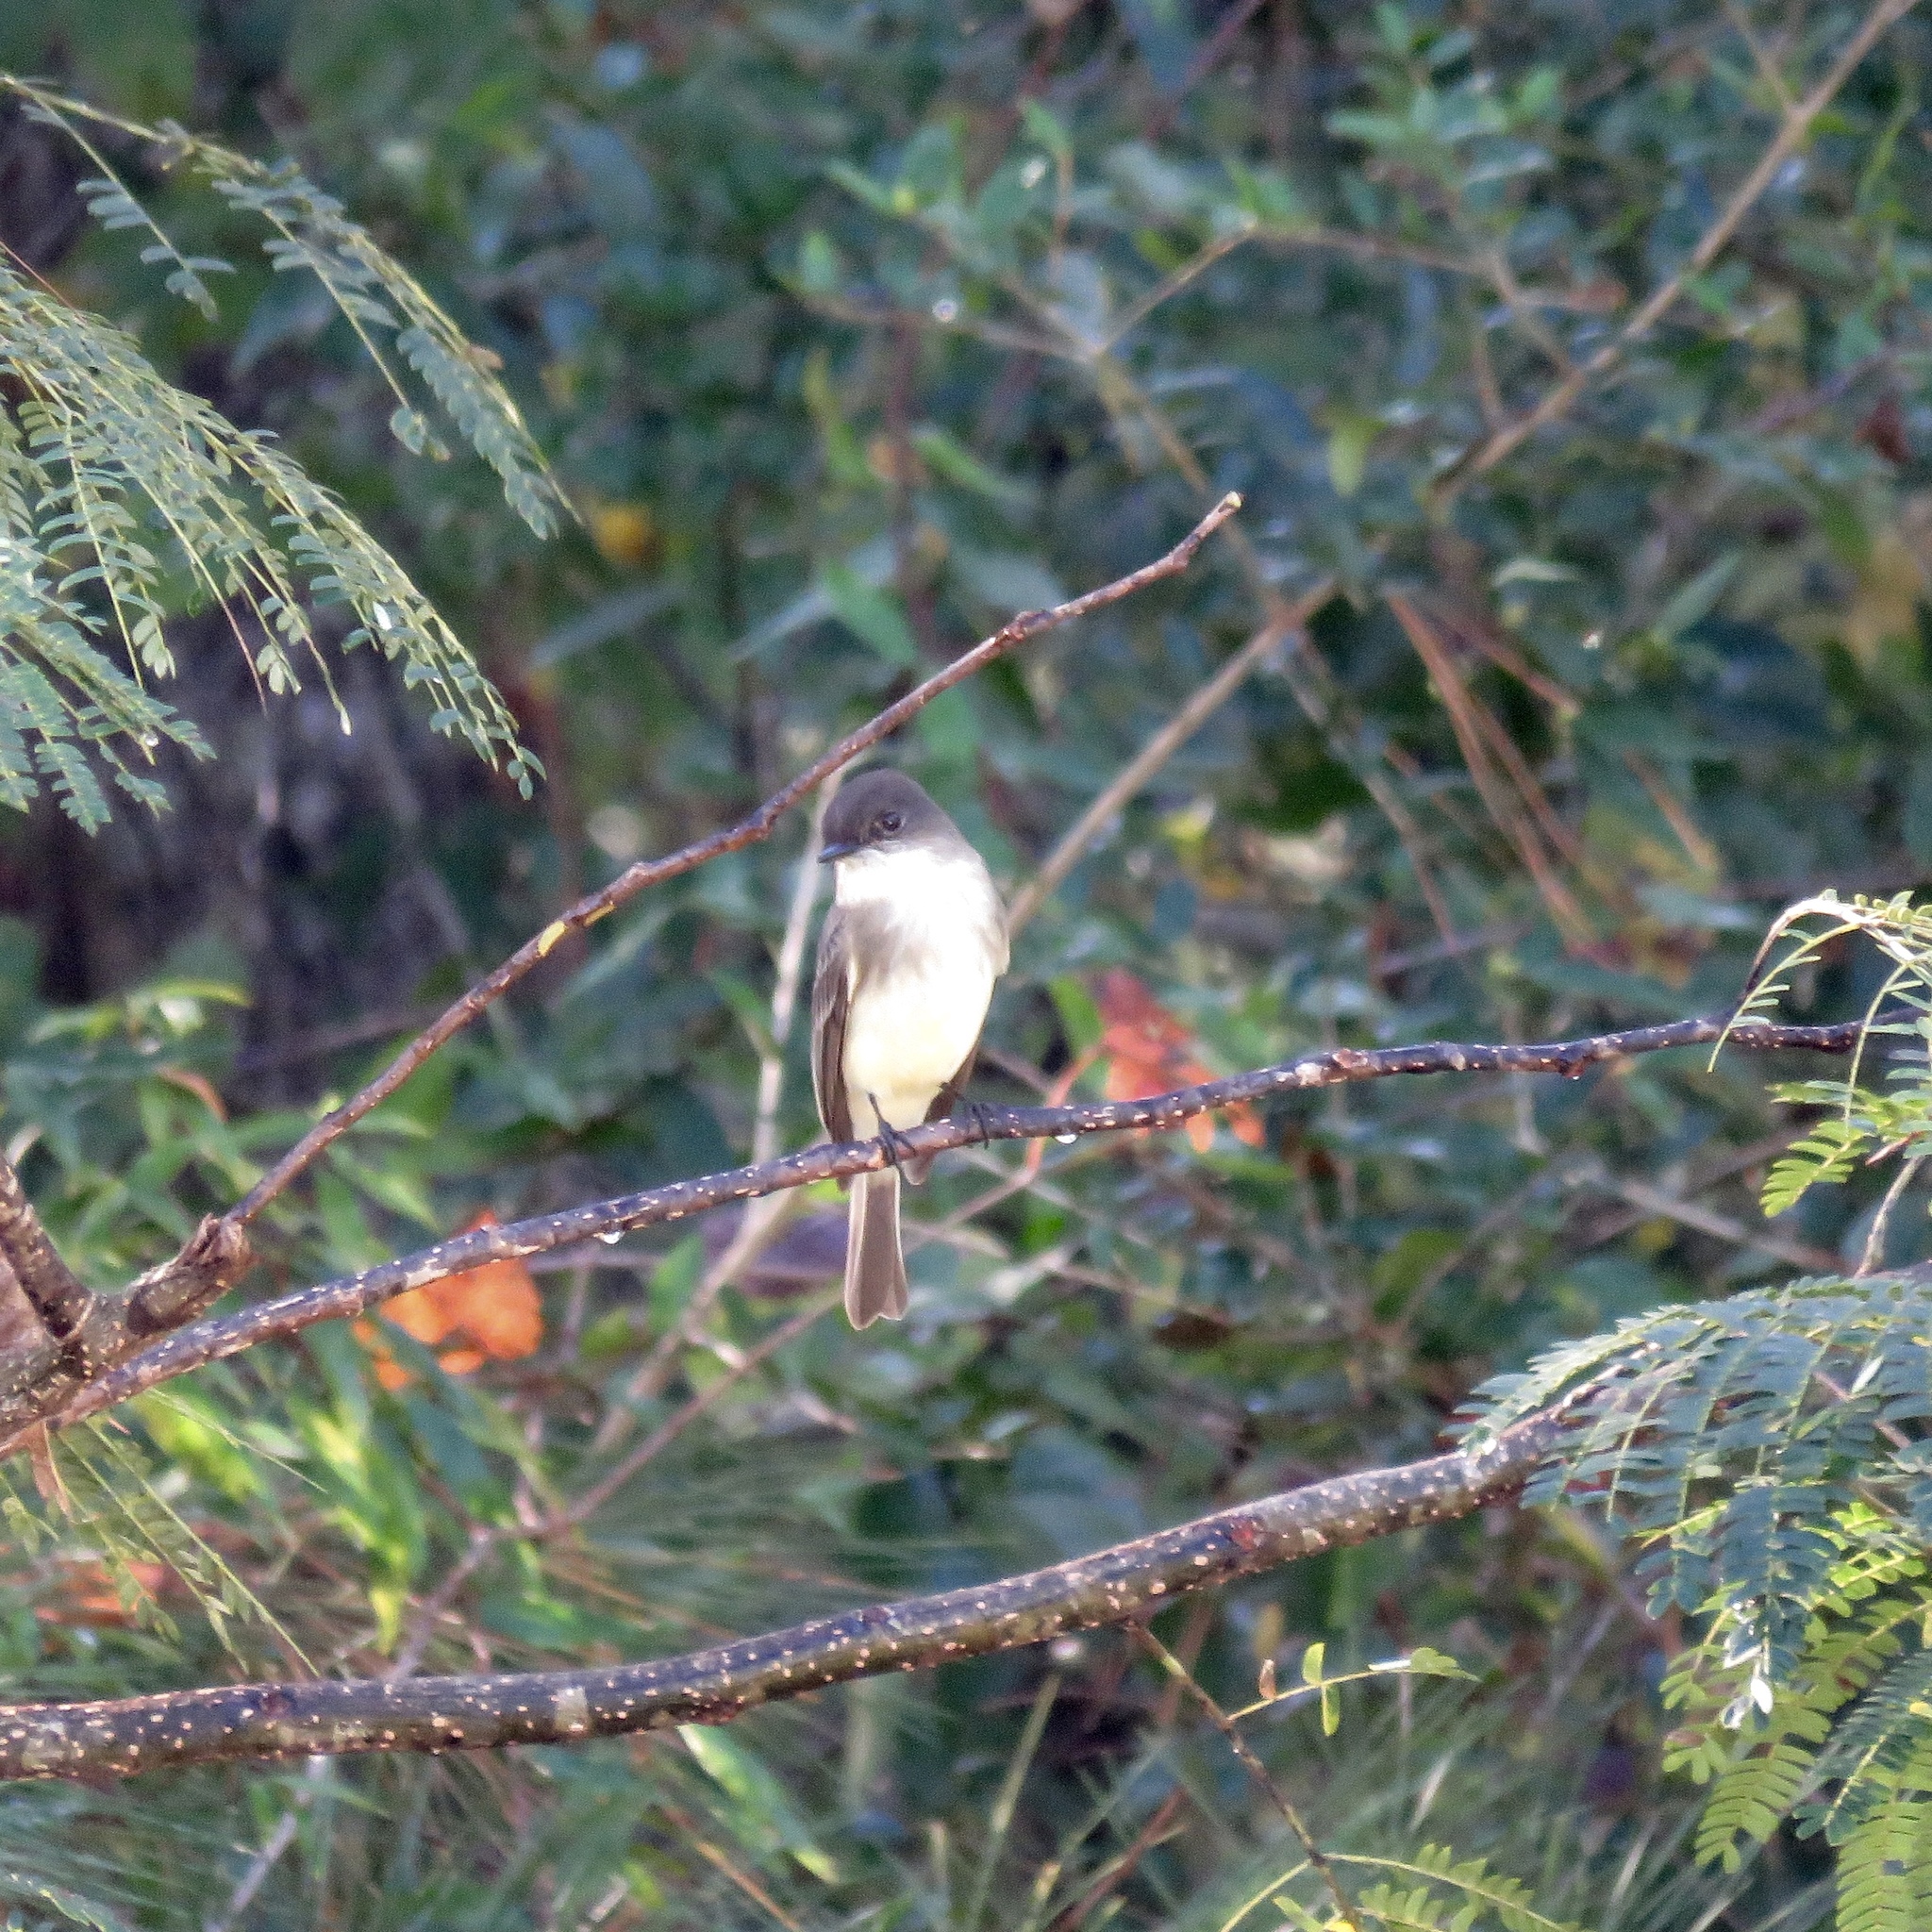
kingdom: Animalia
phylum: Chordata
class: Aves
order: Passeriformes
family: Tyrannidae
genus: Sayornis
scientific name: Sayornis phoebe
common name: Eastern phoebe
